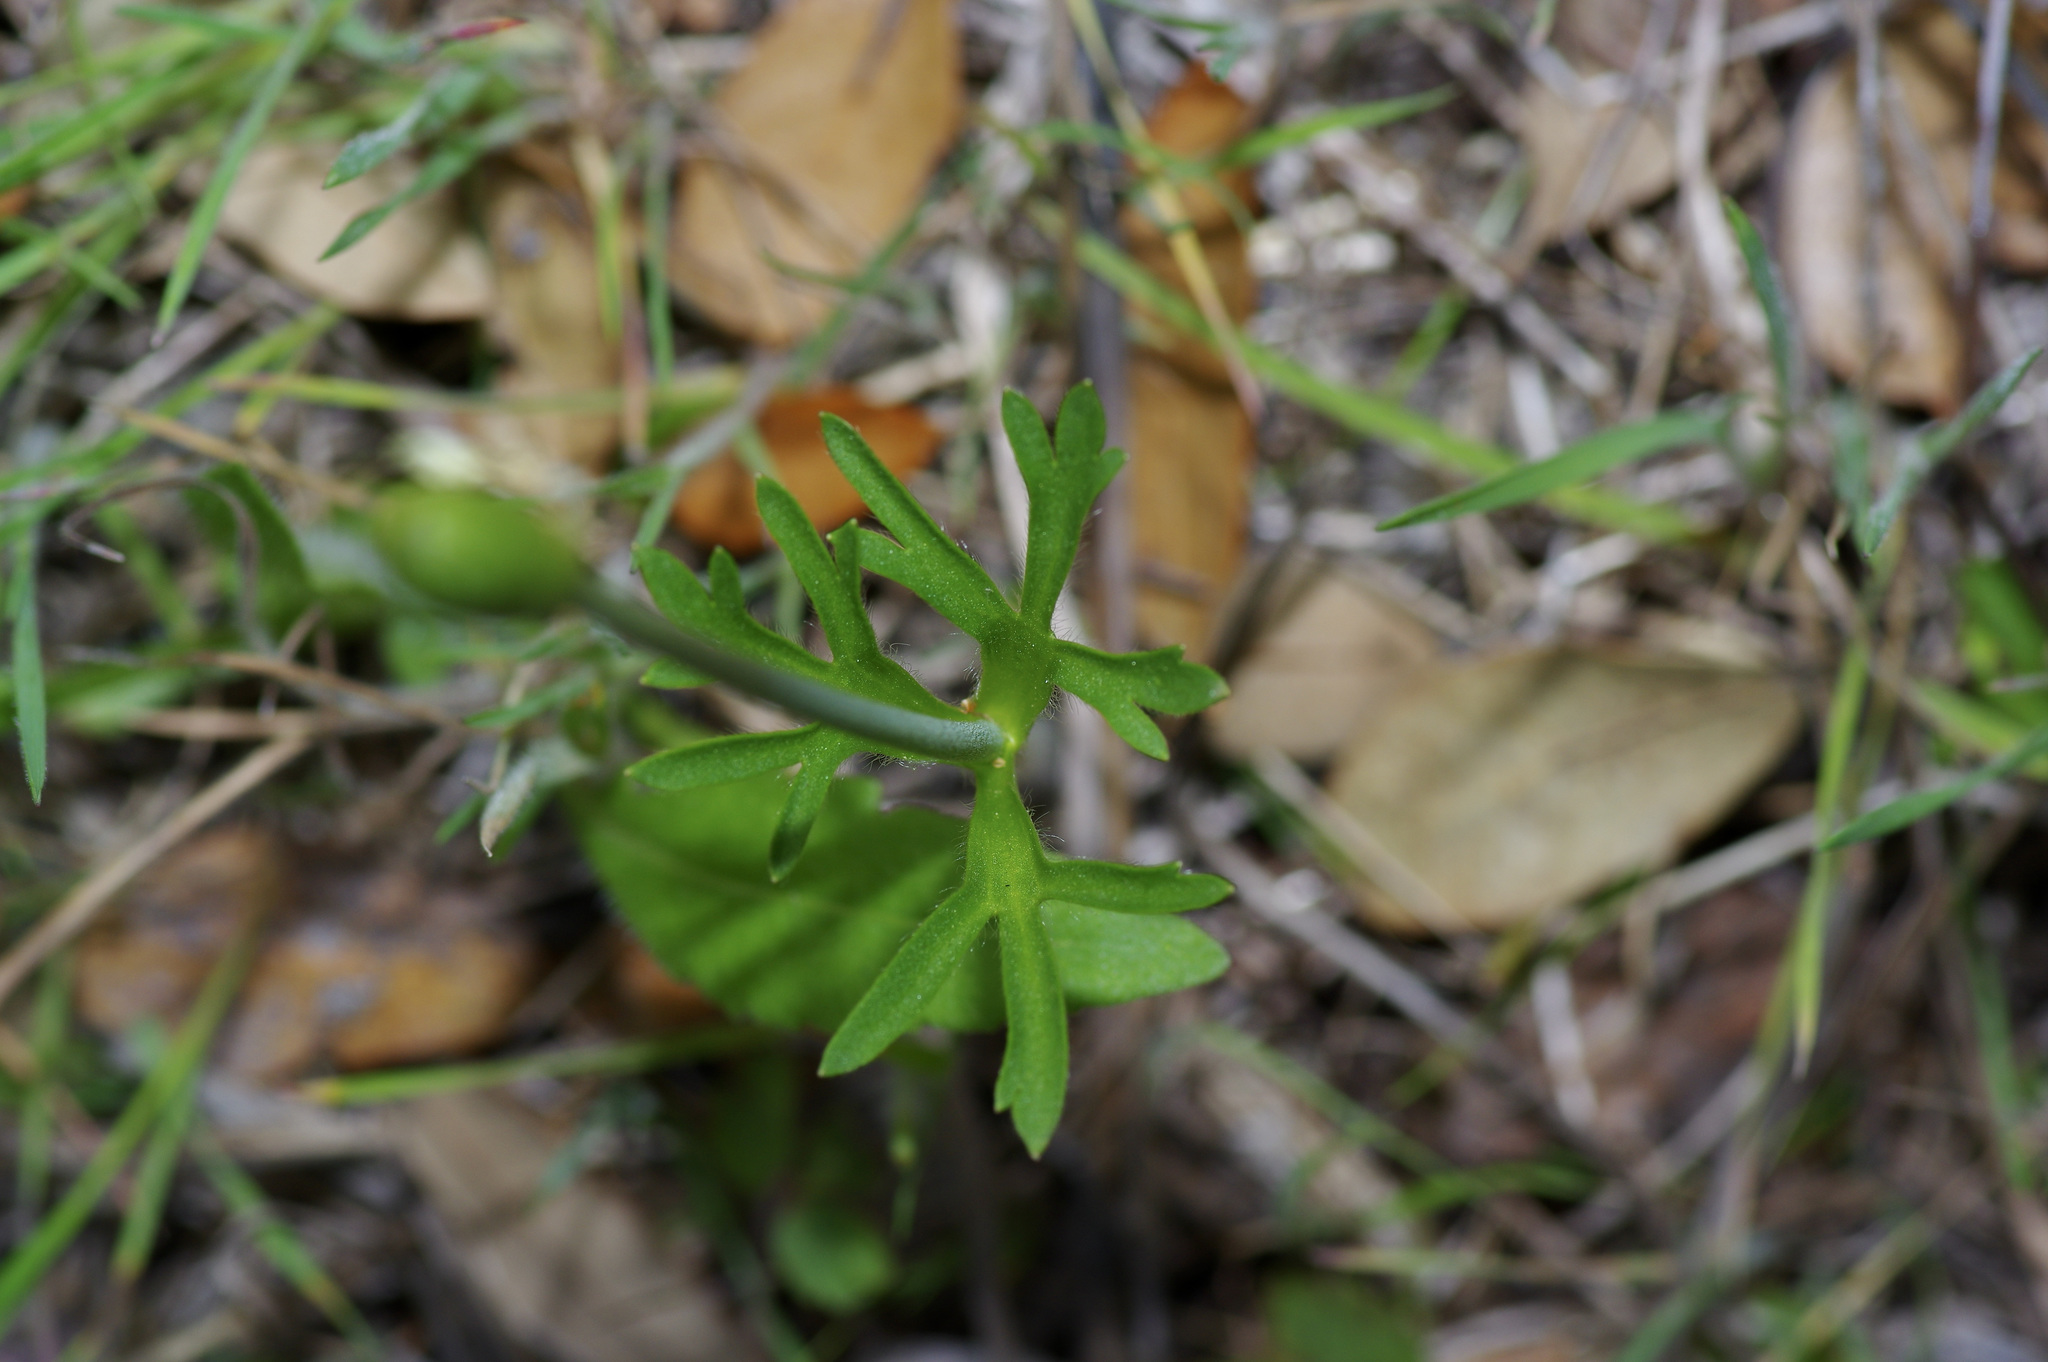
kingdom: Plantae
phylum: Tracheophyta
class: Magnoliopsida
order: Ranunculales
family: Ranunculaceae
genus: Anemone
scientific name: Anemone berlandieri
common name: Ten-petal anemone
